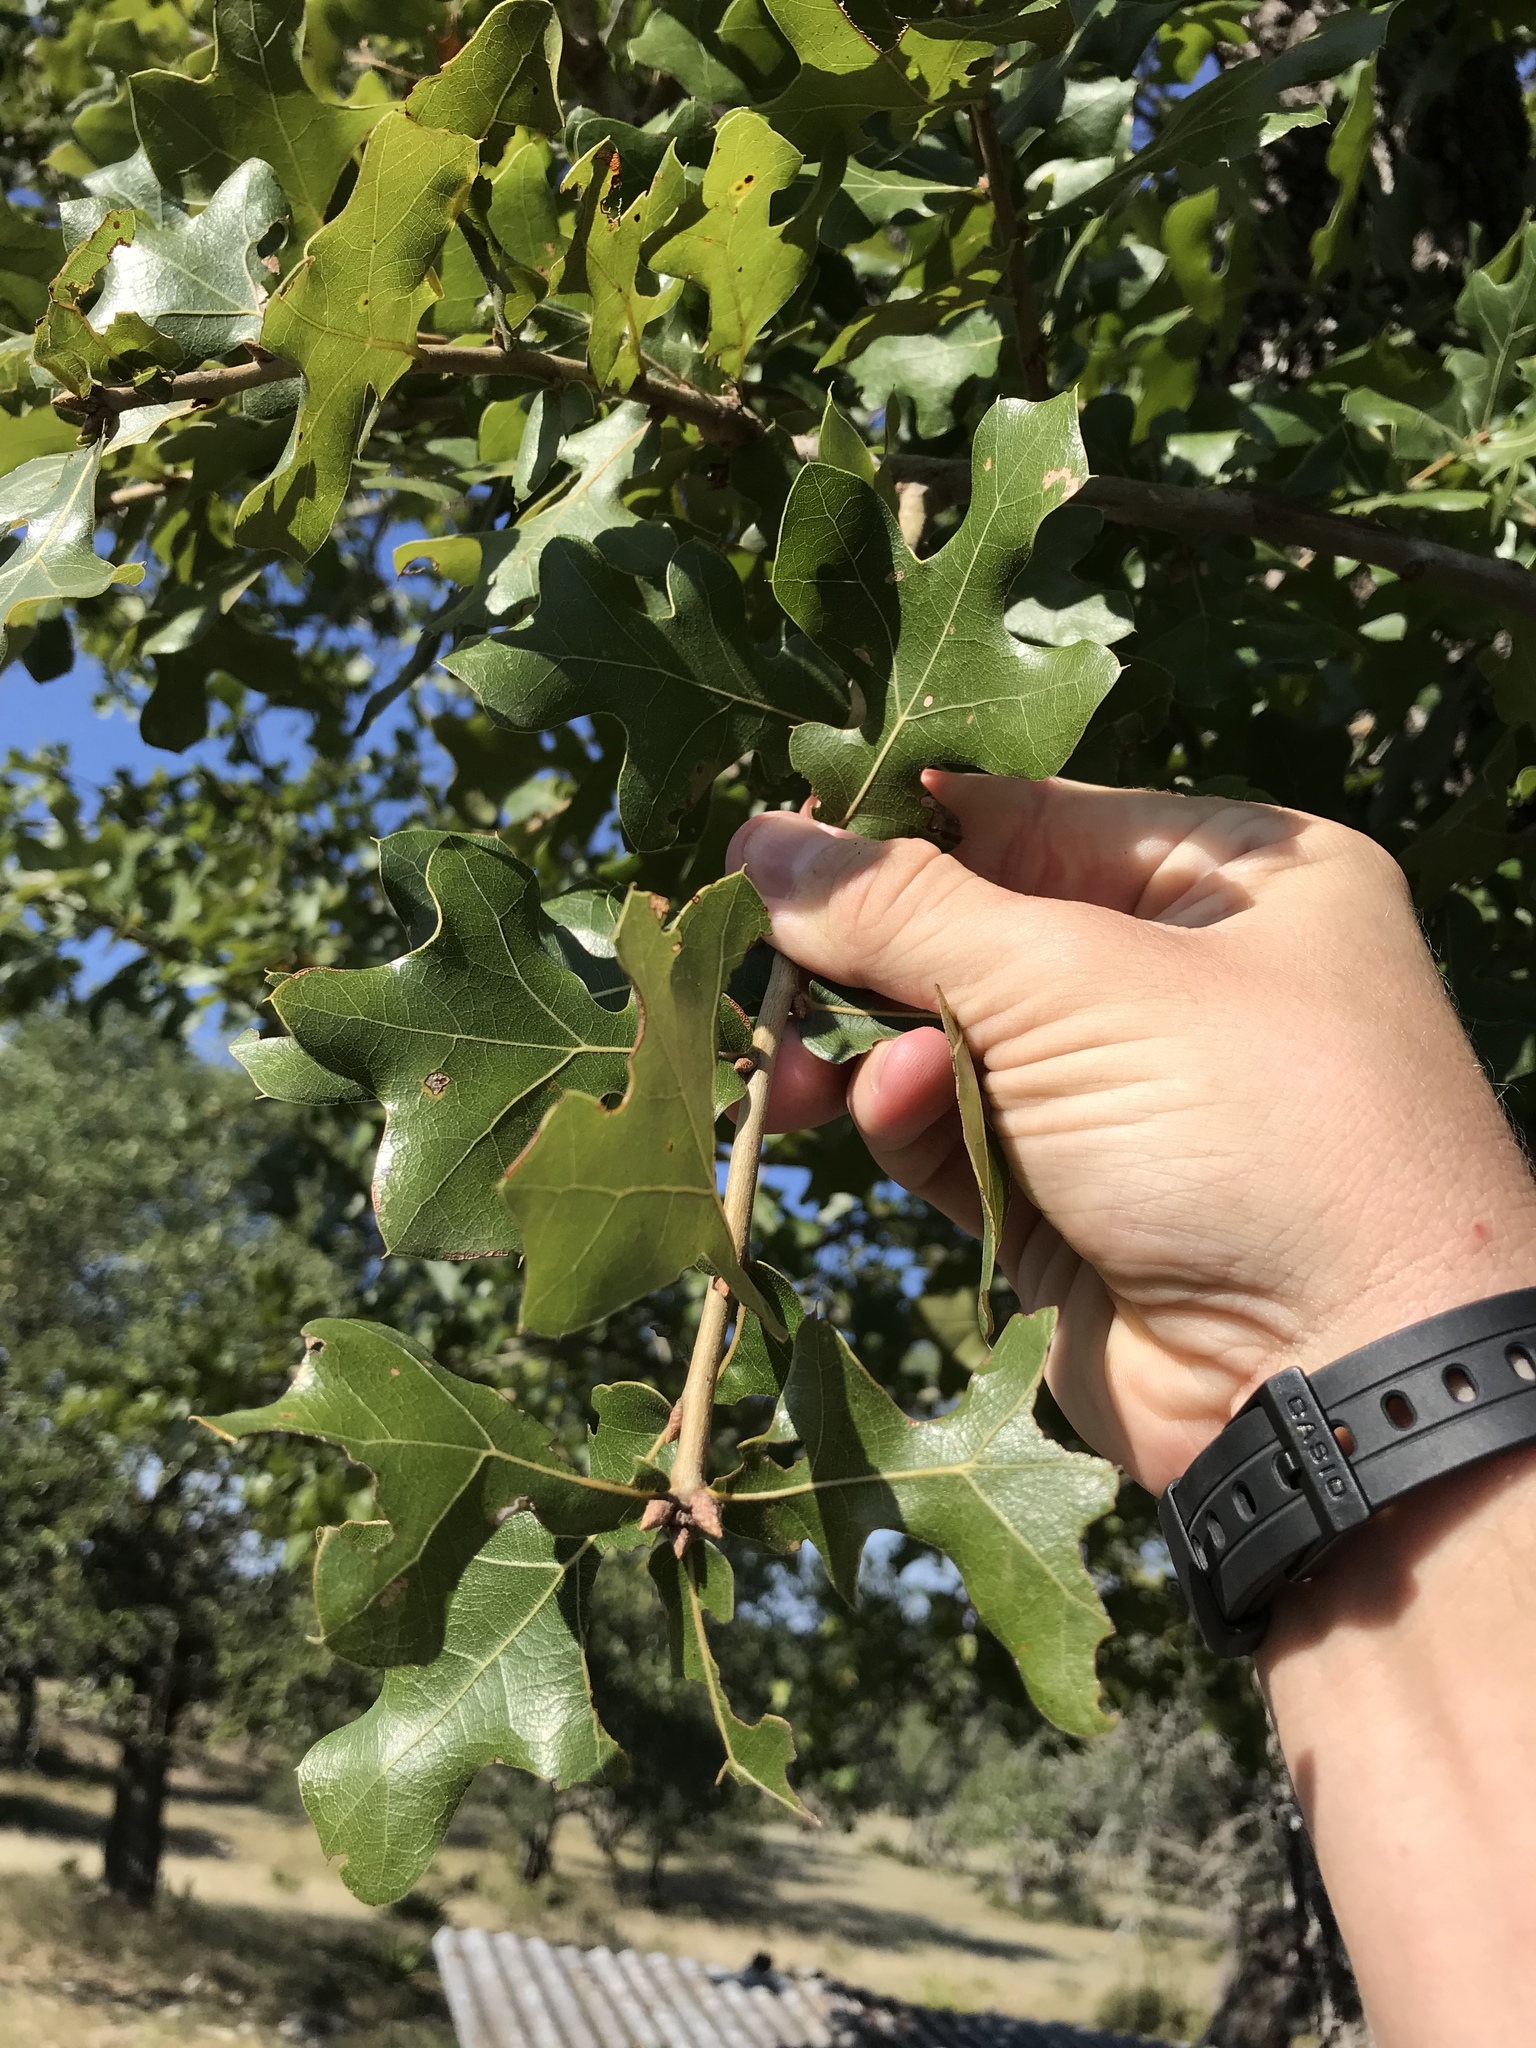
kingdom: Plantae
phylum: Tracheophyta
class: Magnoliopsida
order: Fagales
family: Fagaceae
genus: Quercus
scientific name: Quercus marilandica
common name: Blackjack oak
